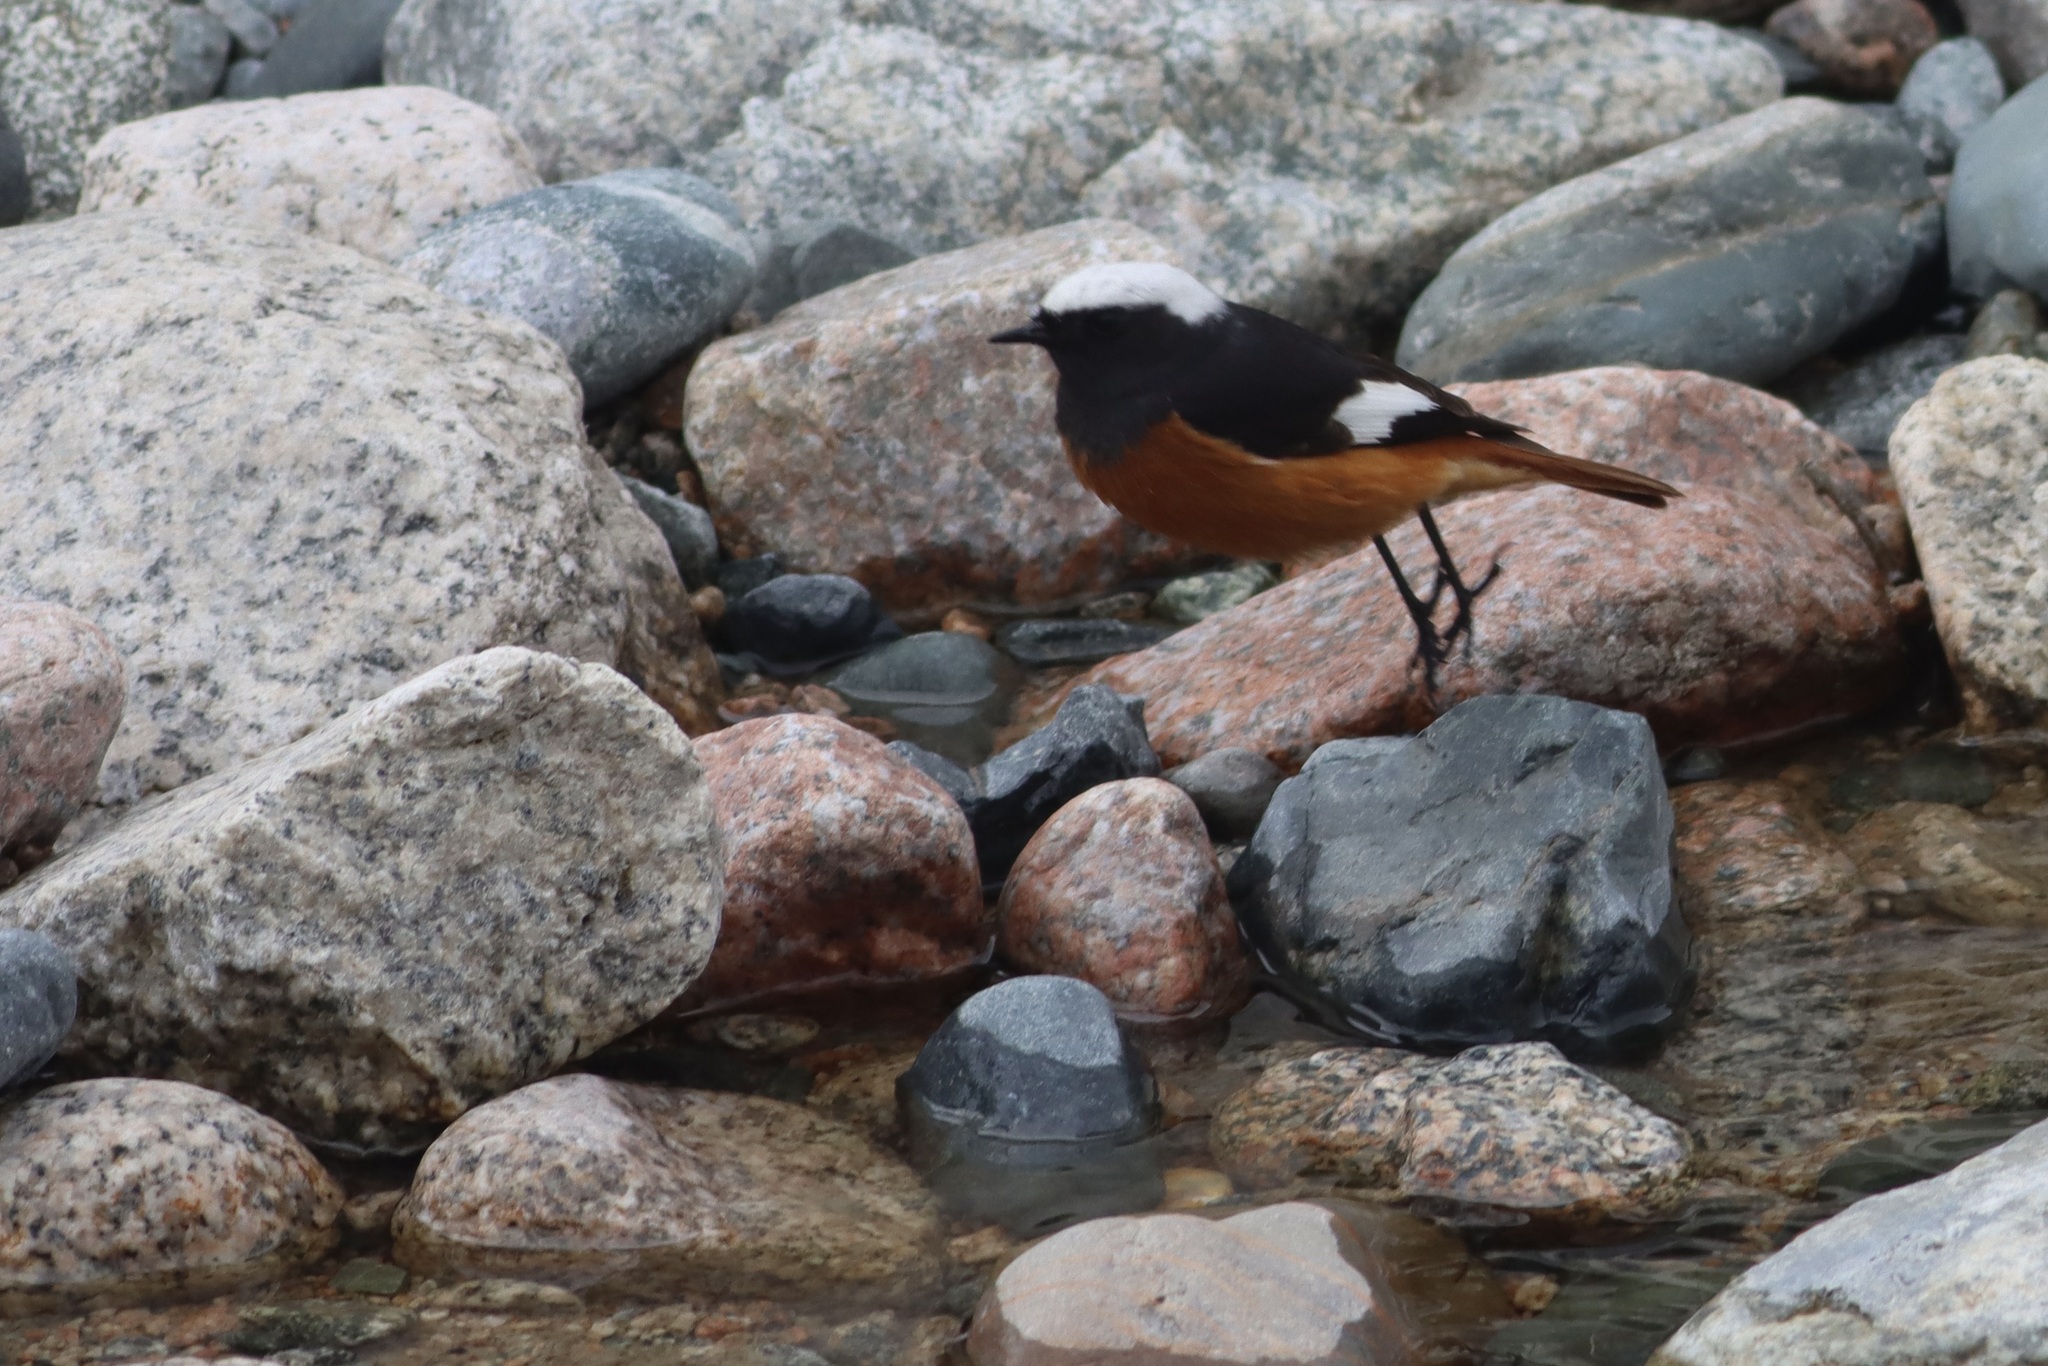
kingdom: Animalia
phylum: Chordata
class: Aves
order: Passeriformes
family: Muscicapidae
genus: Phoenicurus
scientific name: Phoenicurus erythrogastrus
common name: Güldenstädt's redstart
